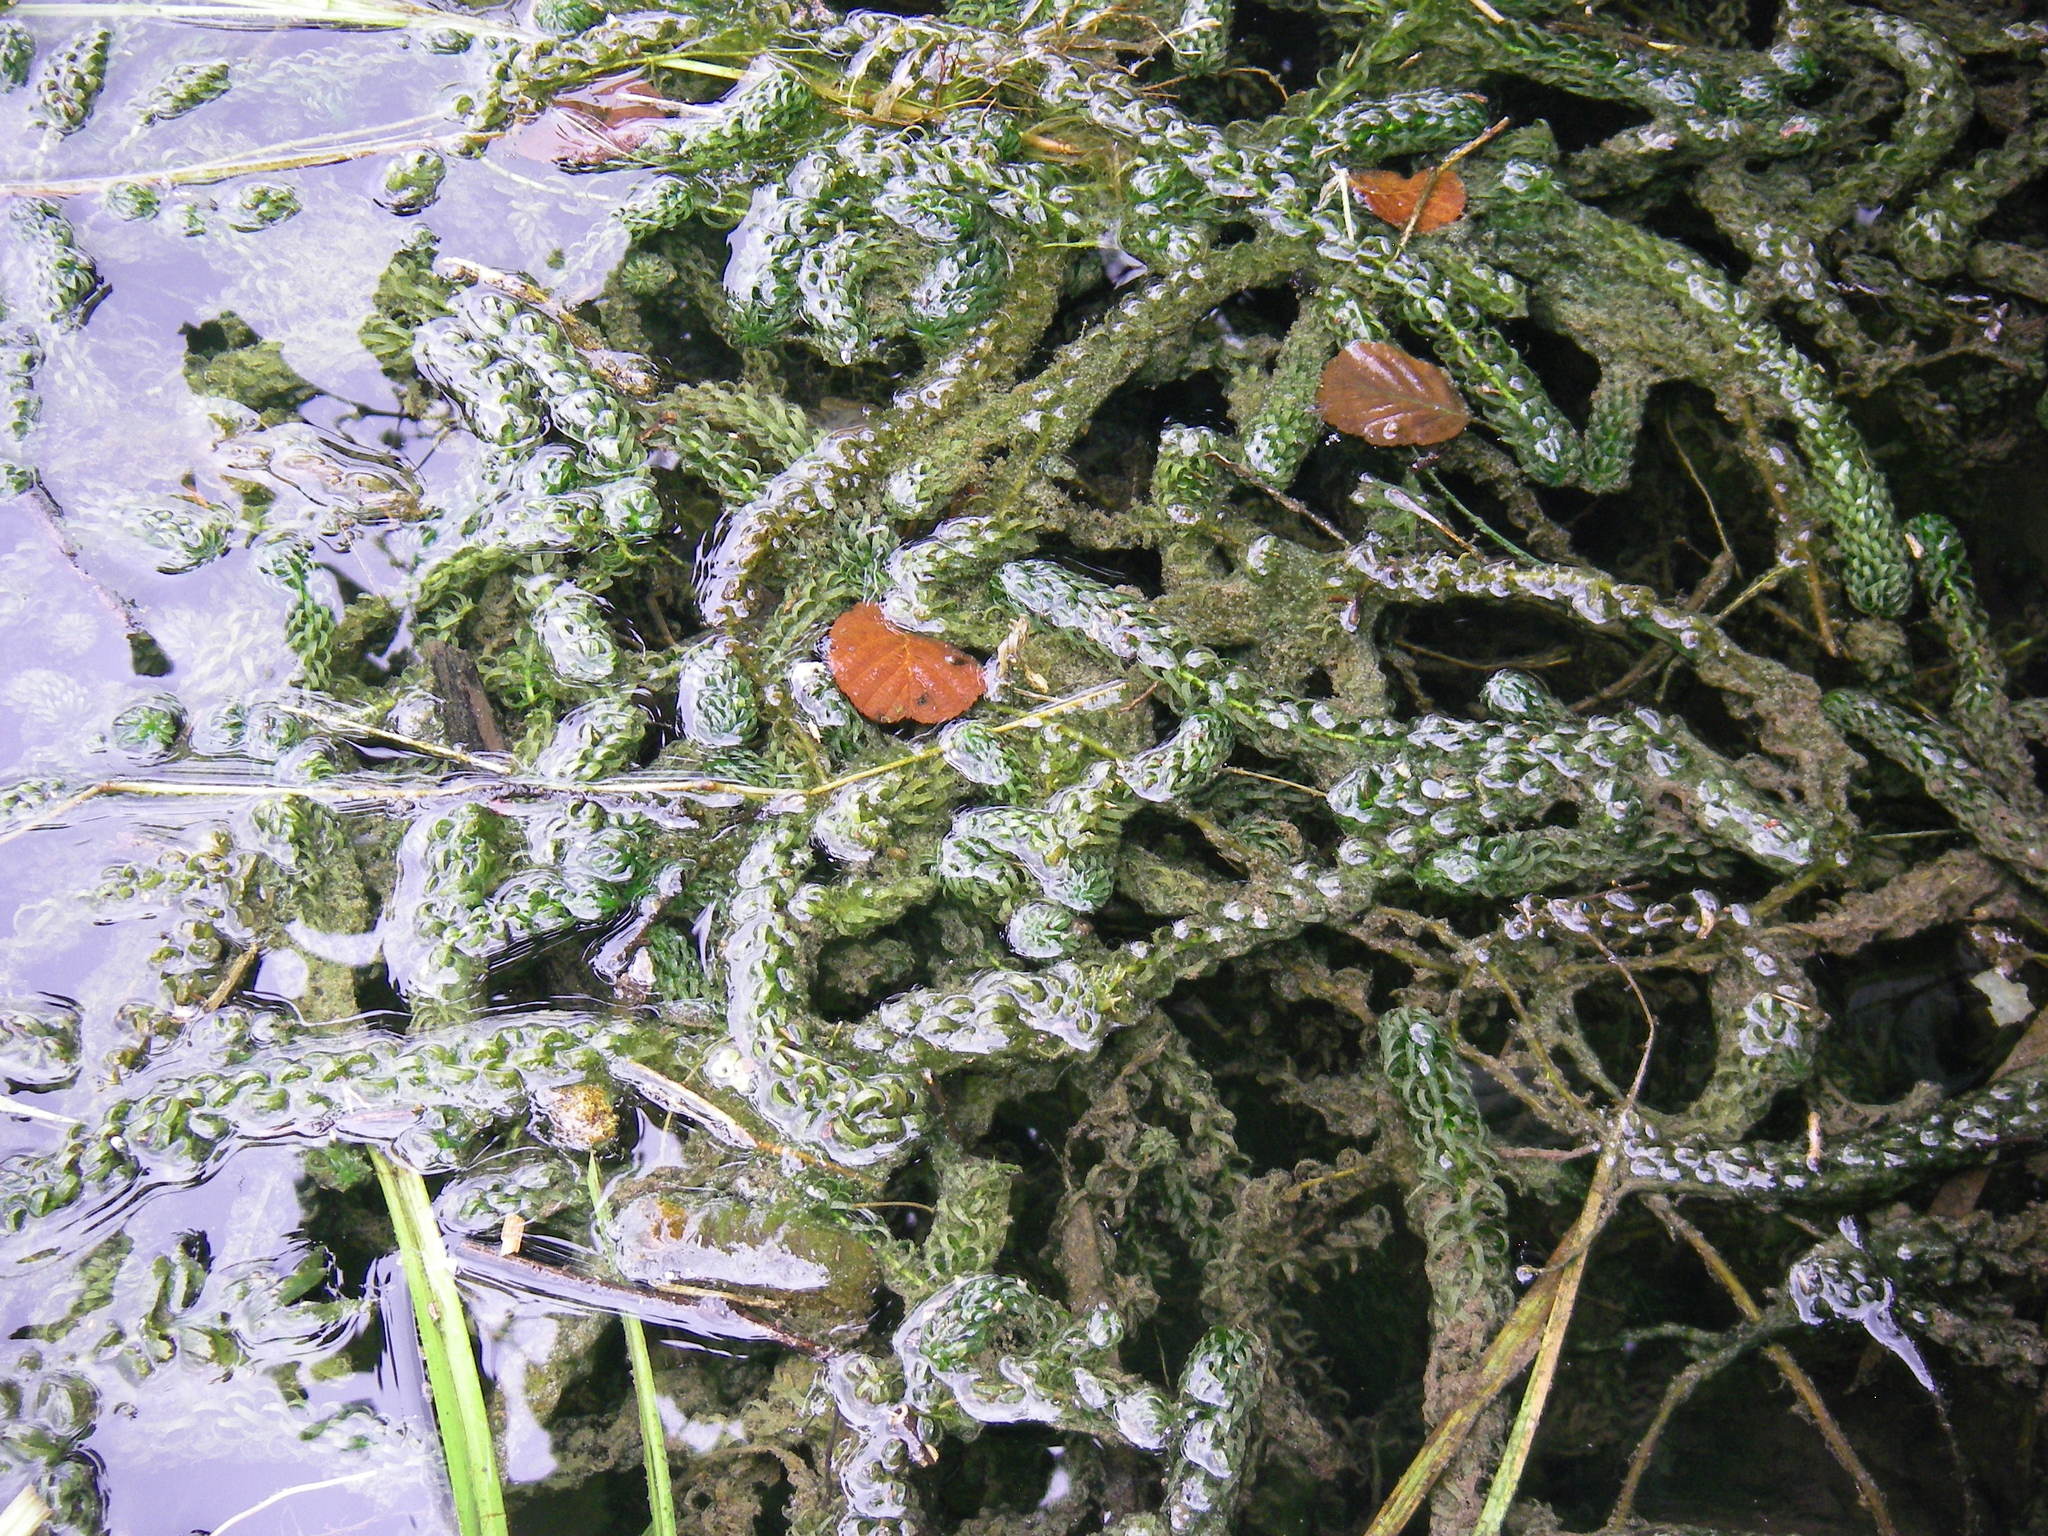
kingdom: Plantae
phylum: Tracheophyta
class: Liliopsida
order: Alismatales
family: Hydrocharitaceae
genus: Lagarosiphon
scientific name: Lagarosiphon major
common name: Curly waterweed
